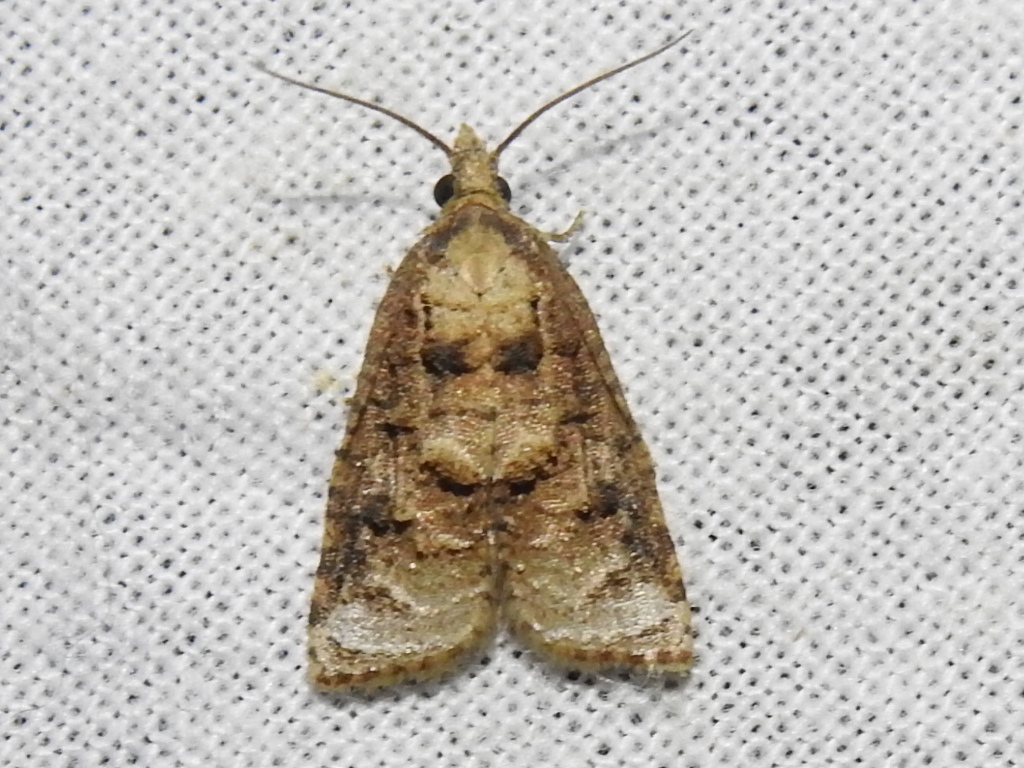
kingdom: Animalia
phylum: Arthropoda
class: Insecta
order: Lepidoptera
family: Tortricidae
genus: Platynota
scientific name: Platynota rostrana
